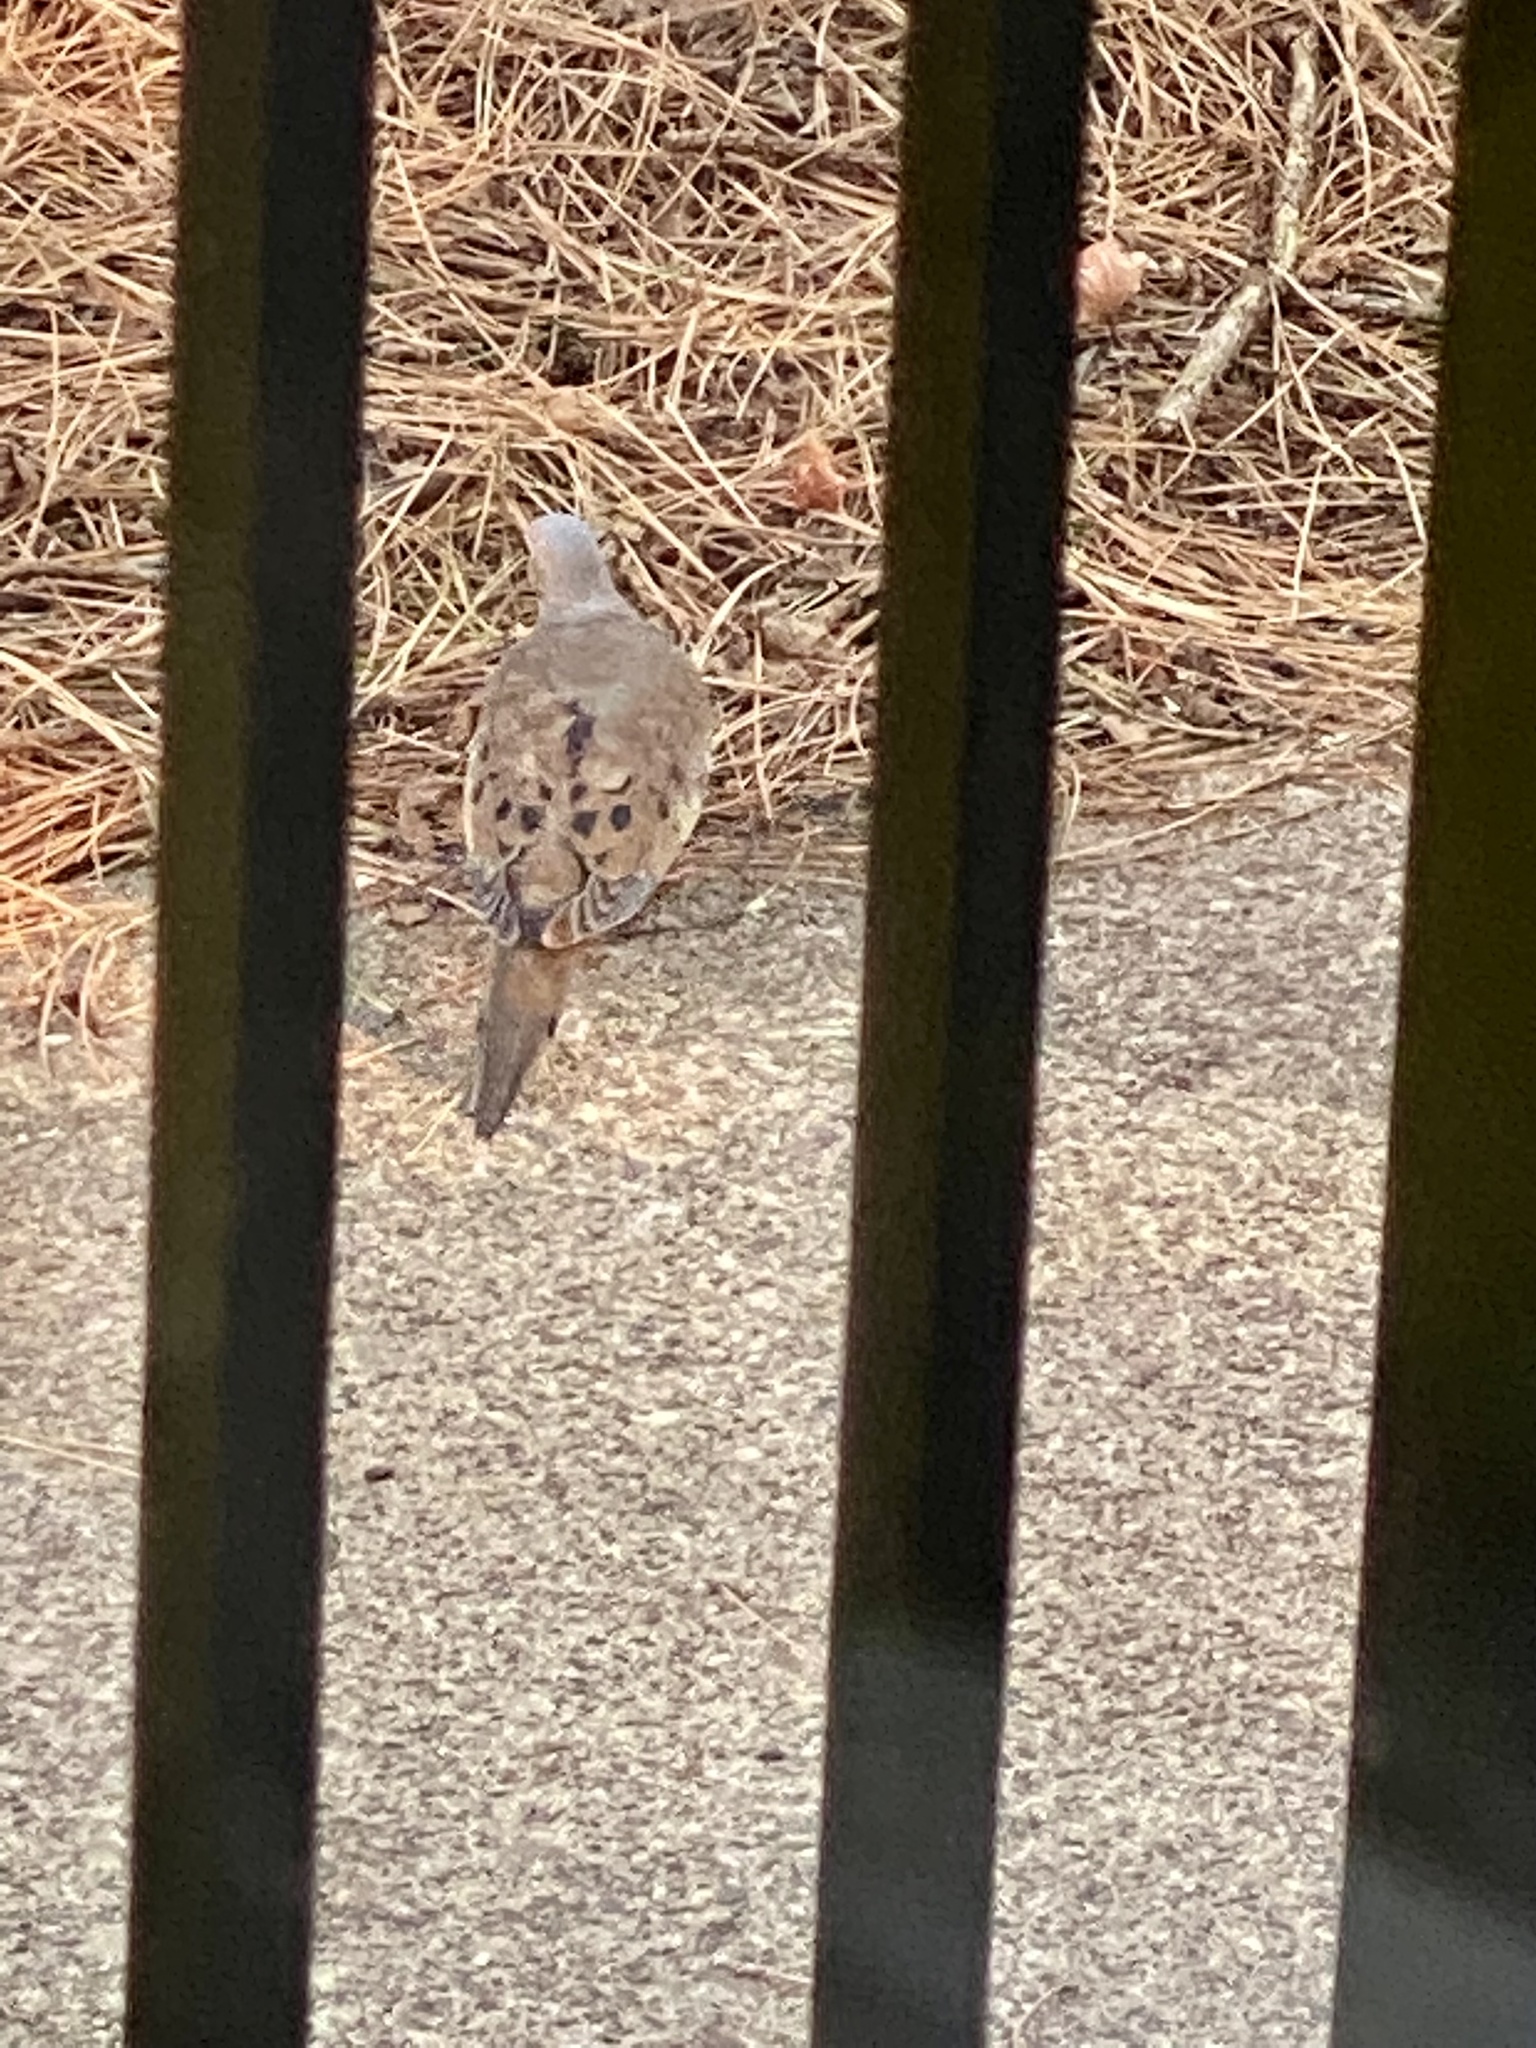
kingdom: Animalia
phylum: Chordata
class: Aves
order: Columbiformes
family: Columbidae
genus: Zenaida
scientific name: Zenaida macroura
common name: Mourning dove
